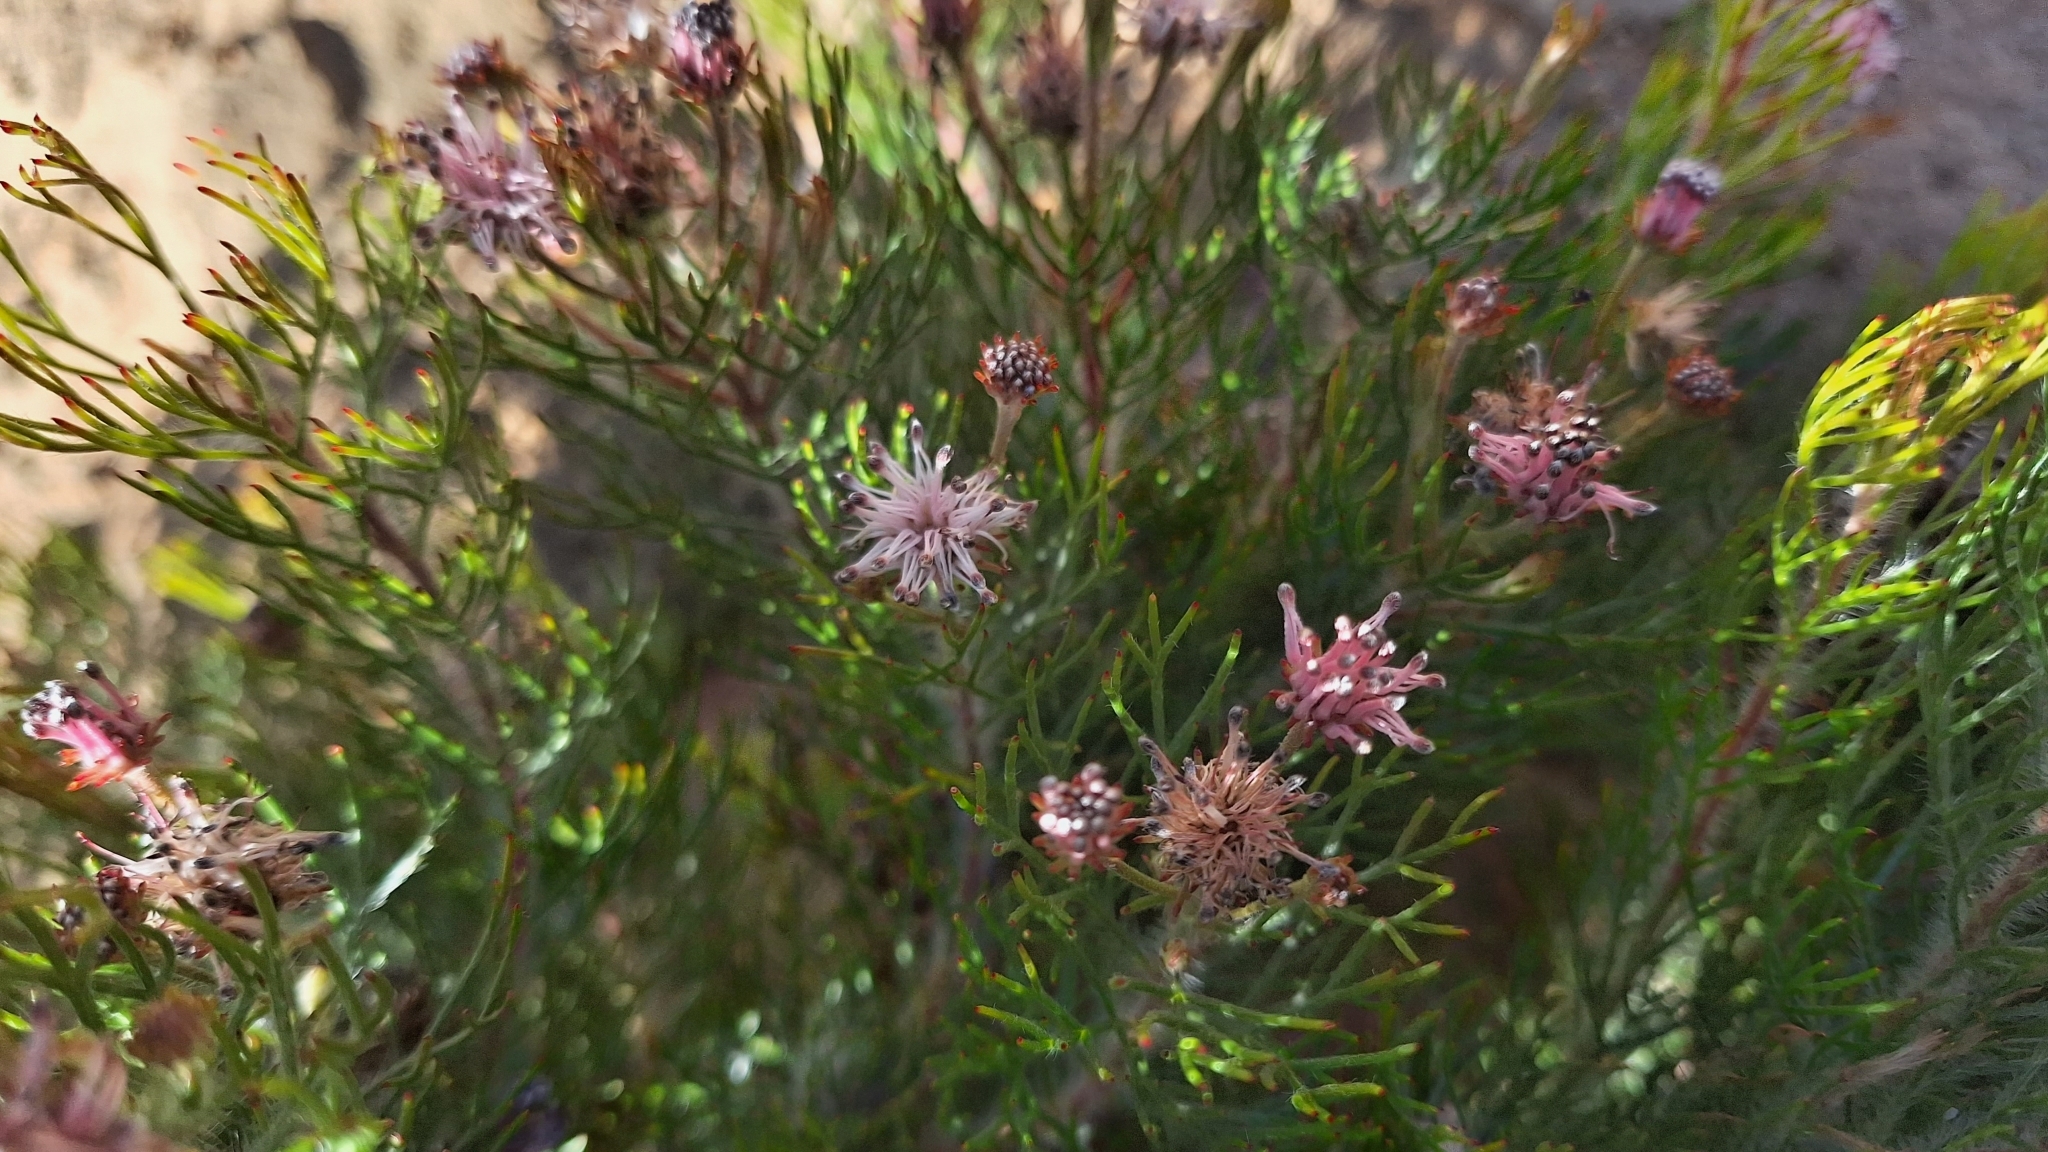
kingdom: Plantae
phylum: Tracheophyta
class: Magnoliopsida
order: Proteales
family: Proteaceae
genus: Serruria
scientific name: Serruria fasciflora
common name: Common pin spiderhead
